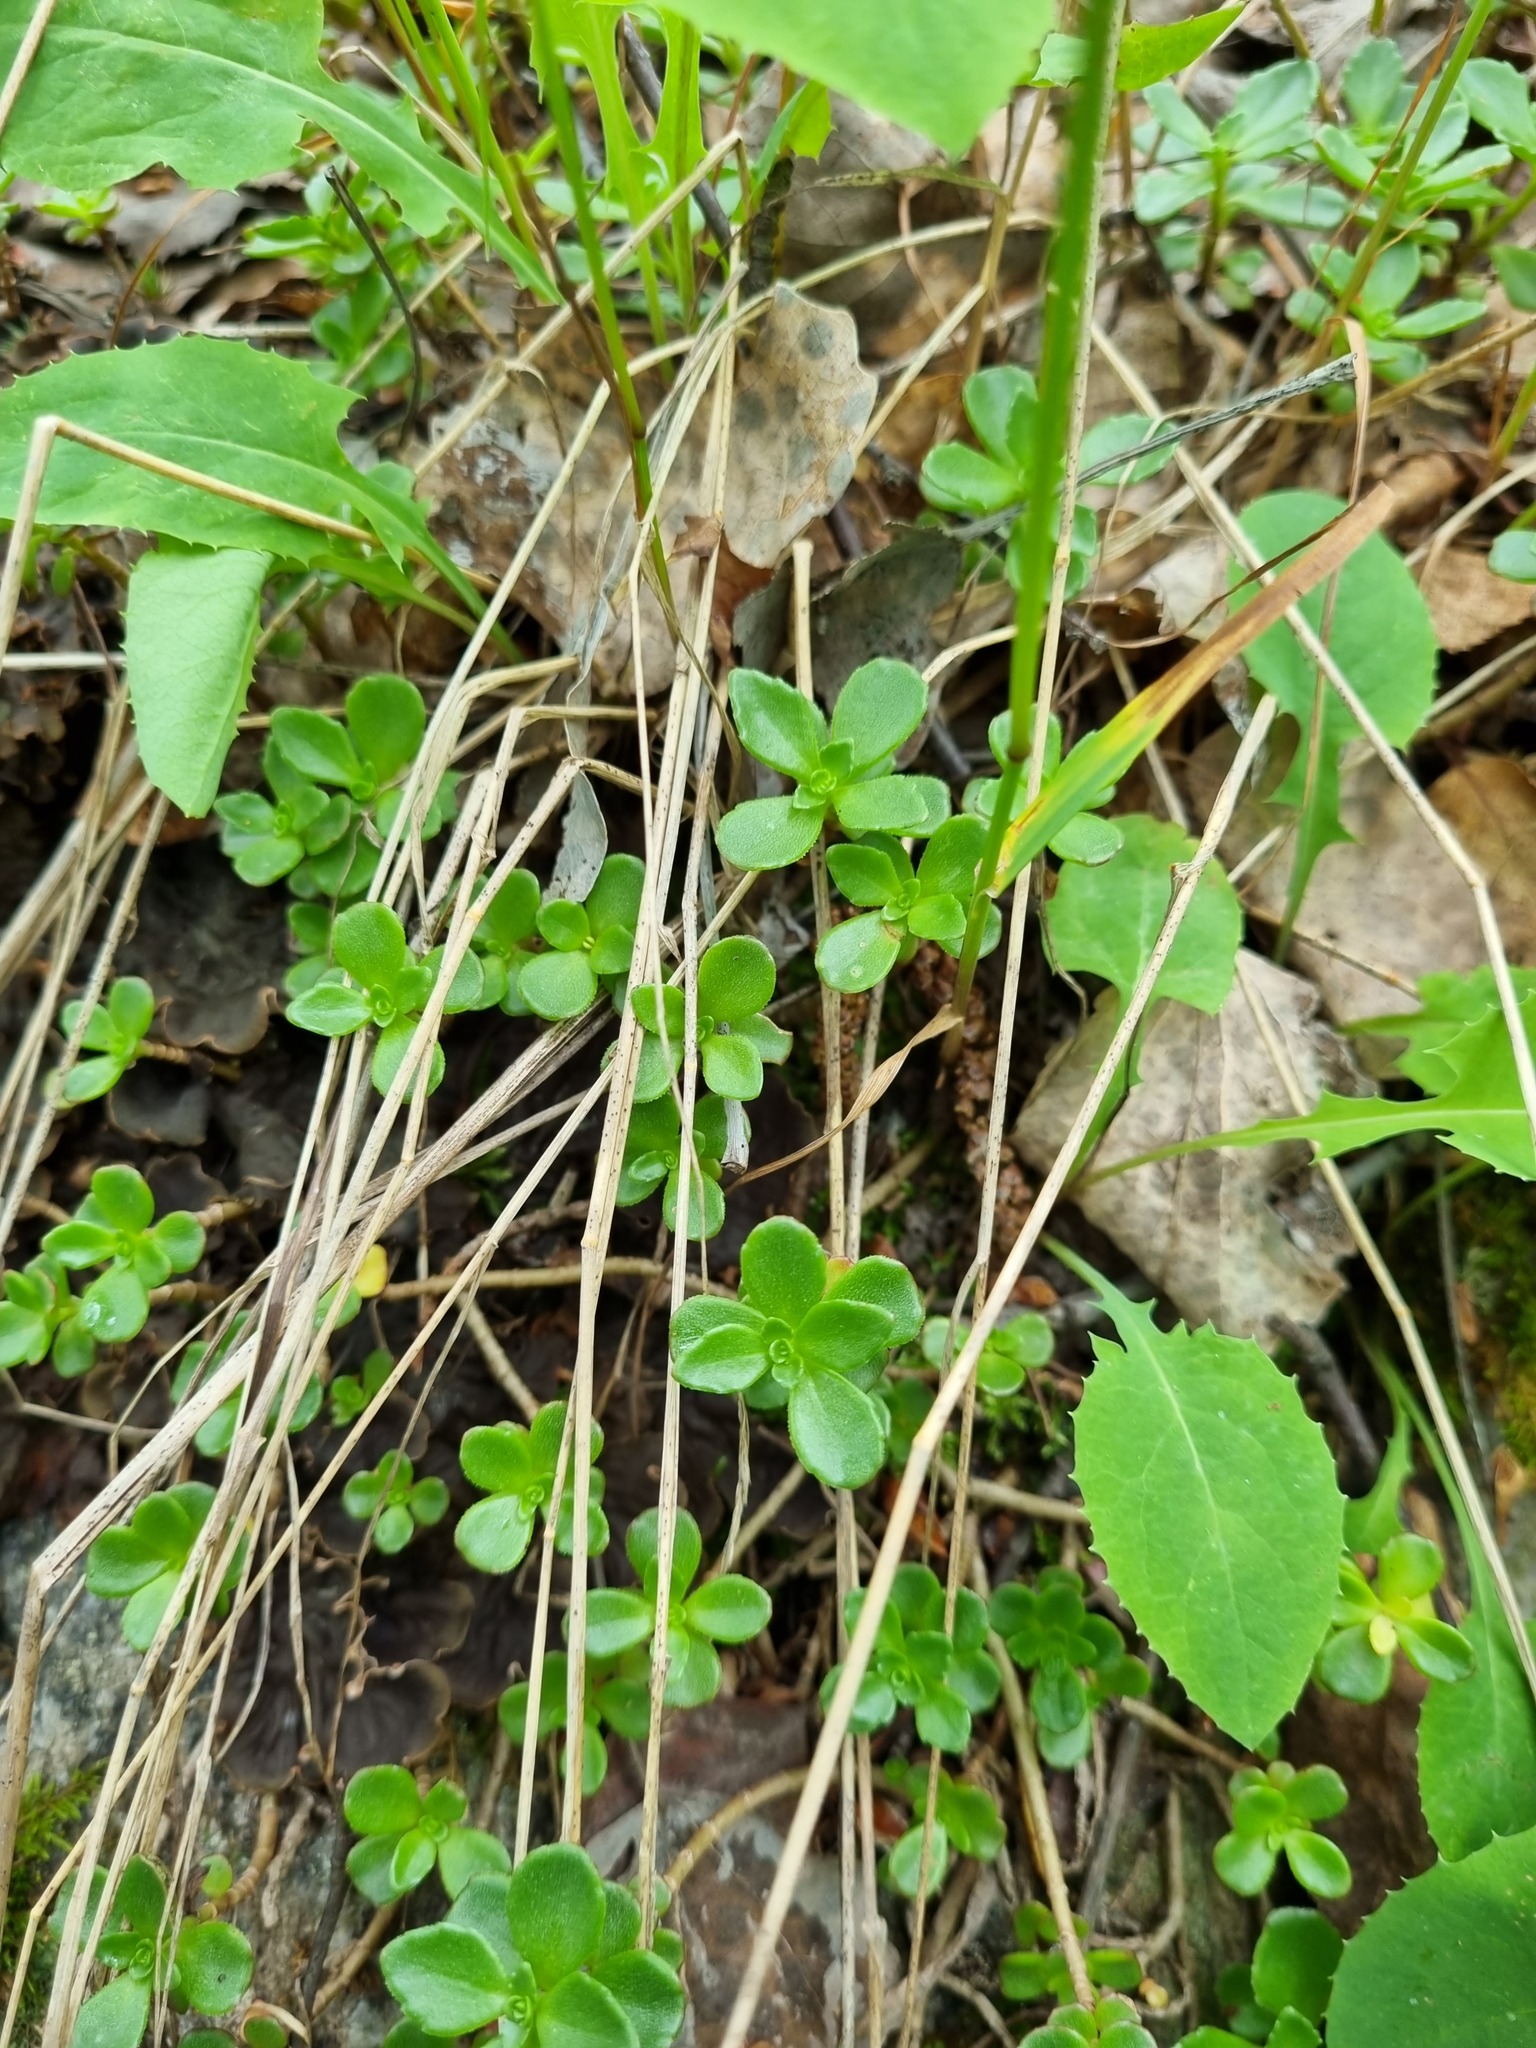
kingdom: Plantae
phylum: Tracheophyta
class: Magnoliopsida
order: Saxifragales
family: Crassulaceae
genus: Phedimus
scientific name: Phedimus spurius
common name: Caucasian stonecrop
